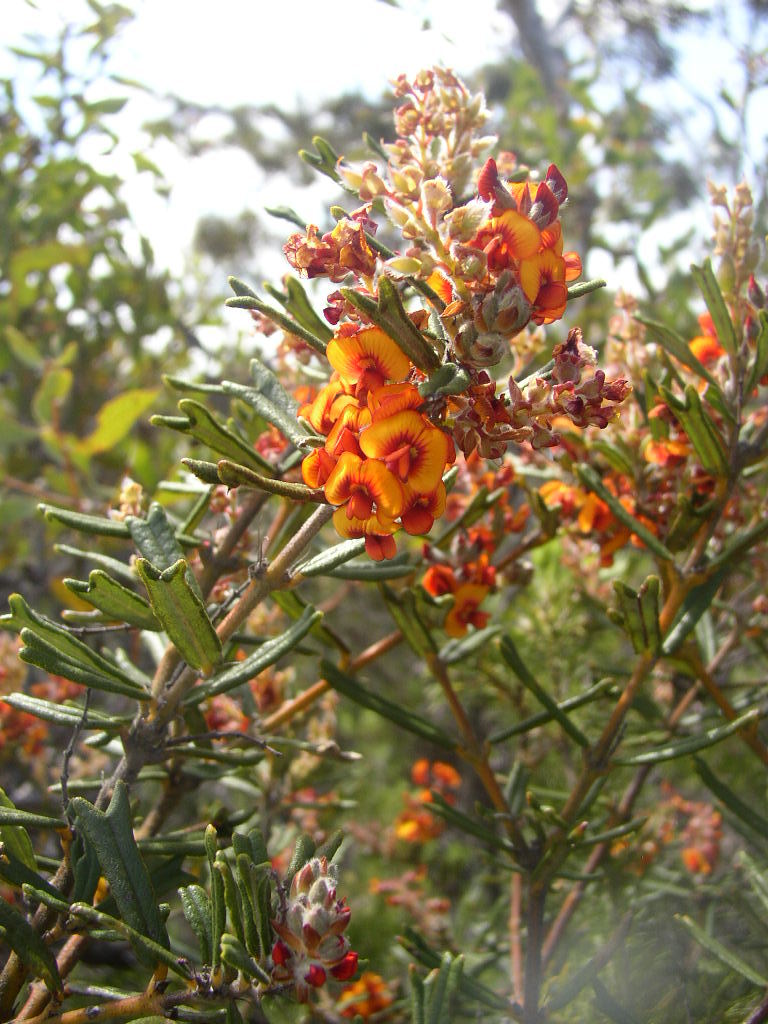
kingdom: Plantae
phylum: Tracheophyta
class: Magnoliopsida
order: Fabales
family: Fabaceae
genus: Gastrolobium
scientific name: Gastrolobium polystachyum
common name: Hill river poison
